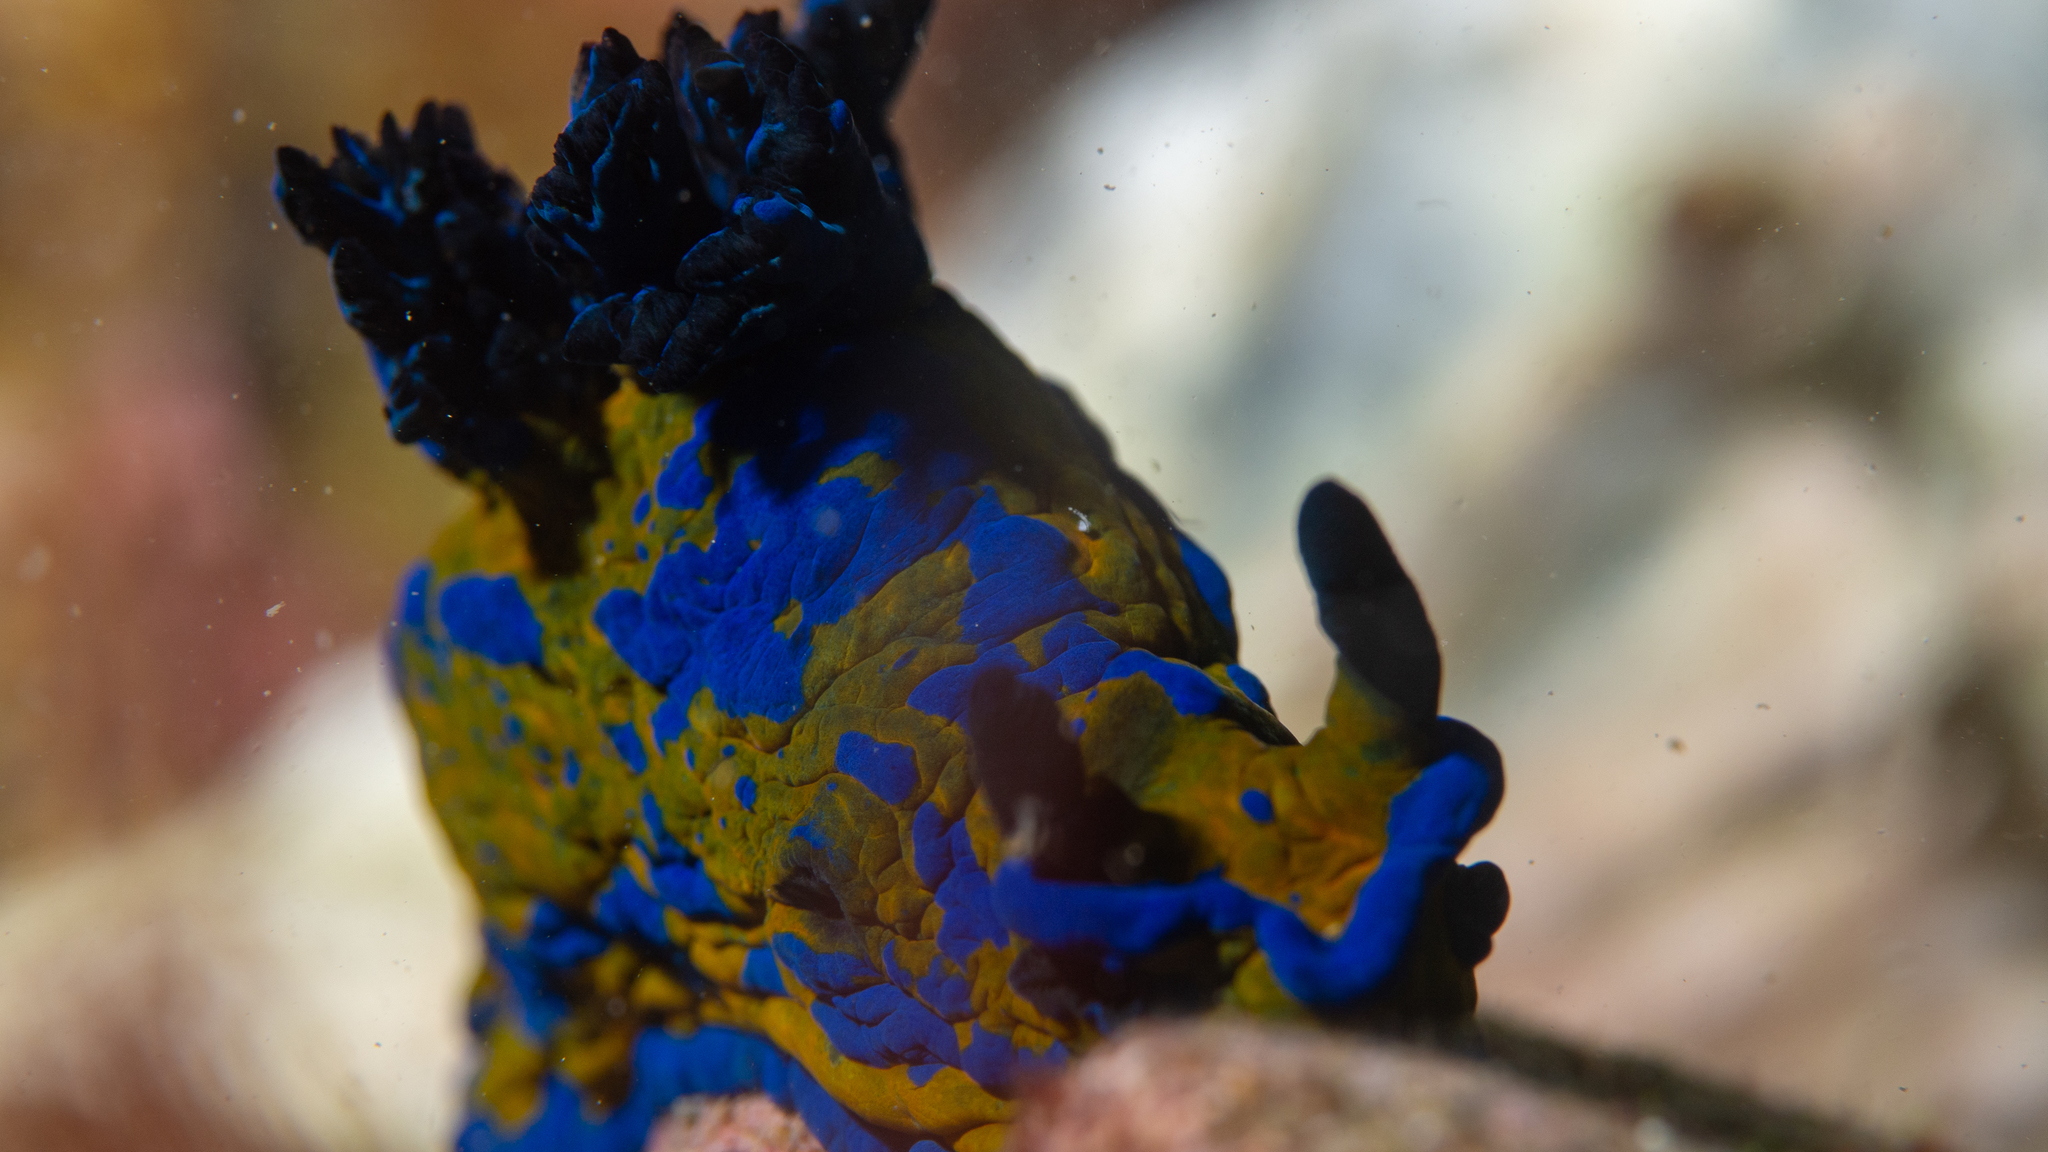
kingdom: Animalia
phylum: Mollusca
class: Gastropoda
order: Nudibranchia
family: Polyceridae
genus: Tambja
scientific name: Tambja verconis
